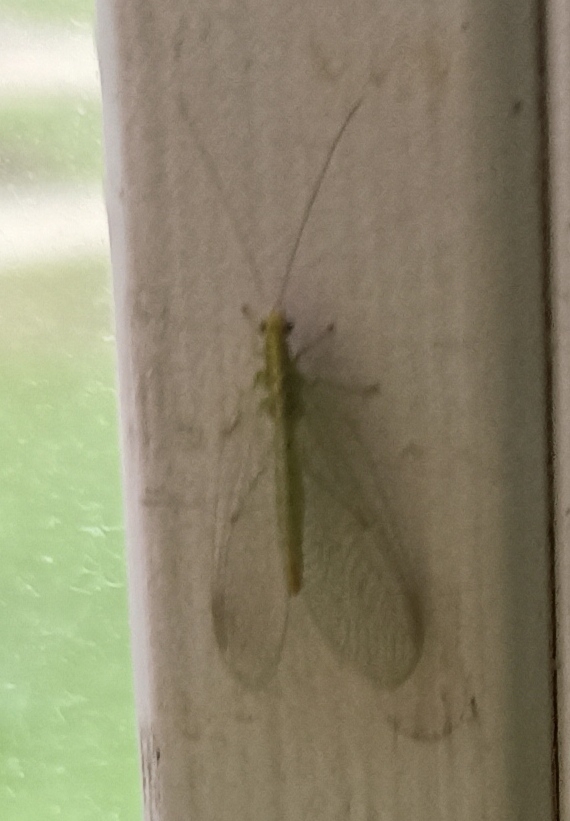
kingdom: Animalia
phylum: Arthropoda
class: Insecta
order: Neuroptera
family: Chrysopidae
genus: Chrysoperla
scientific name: Chrysoperla
